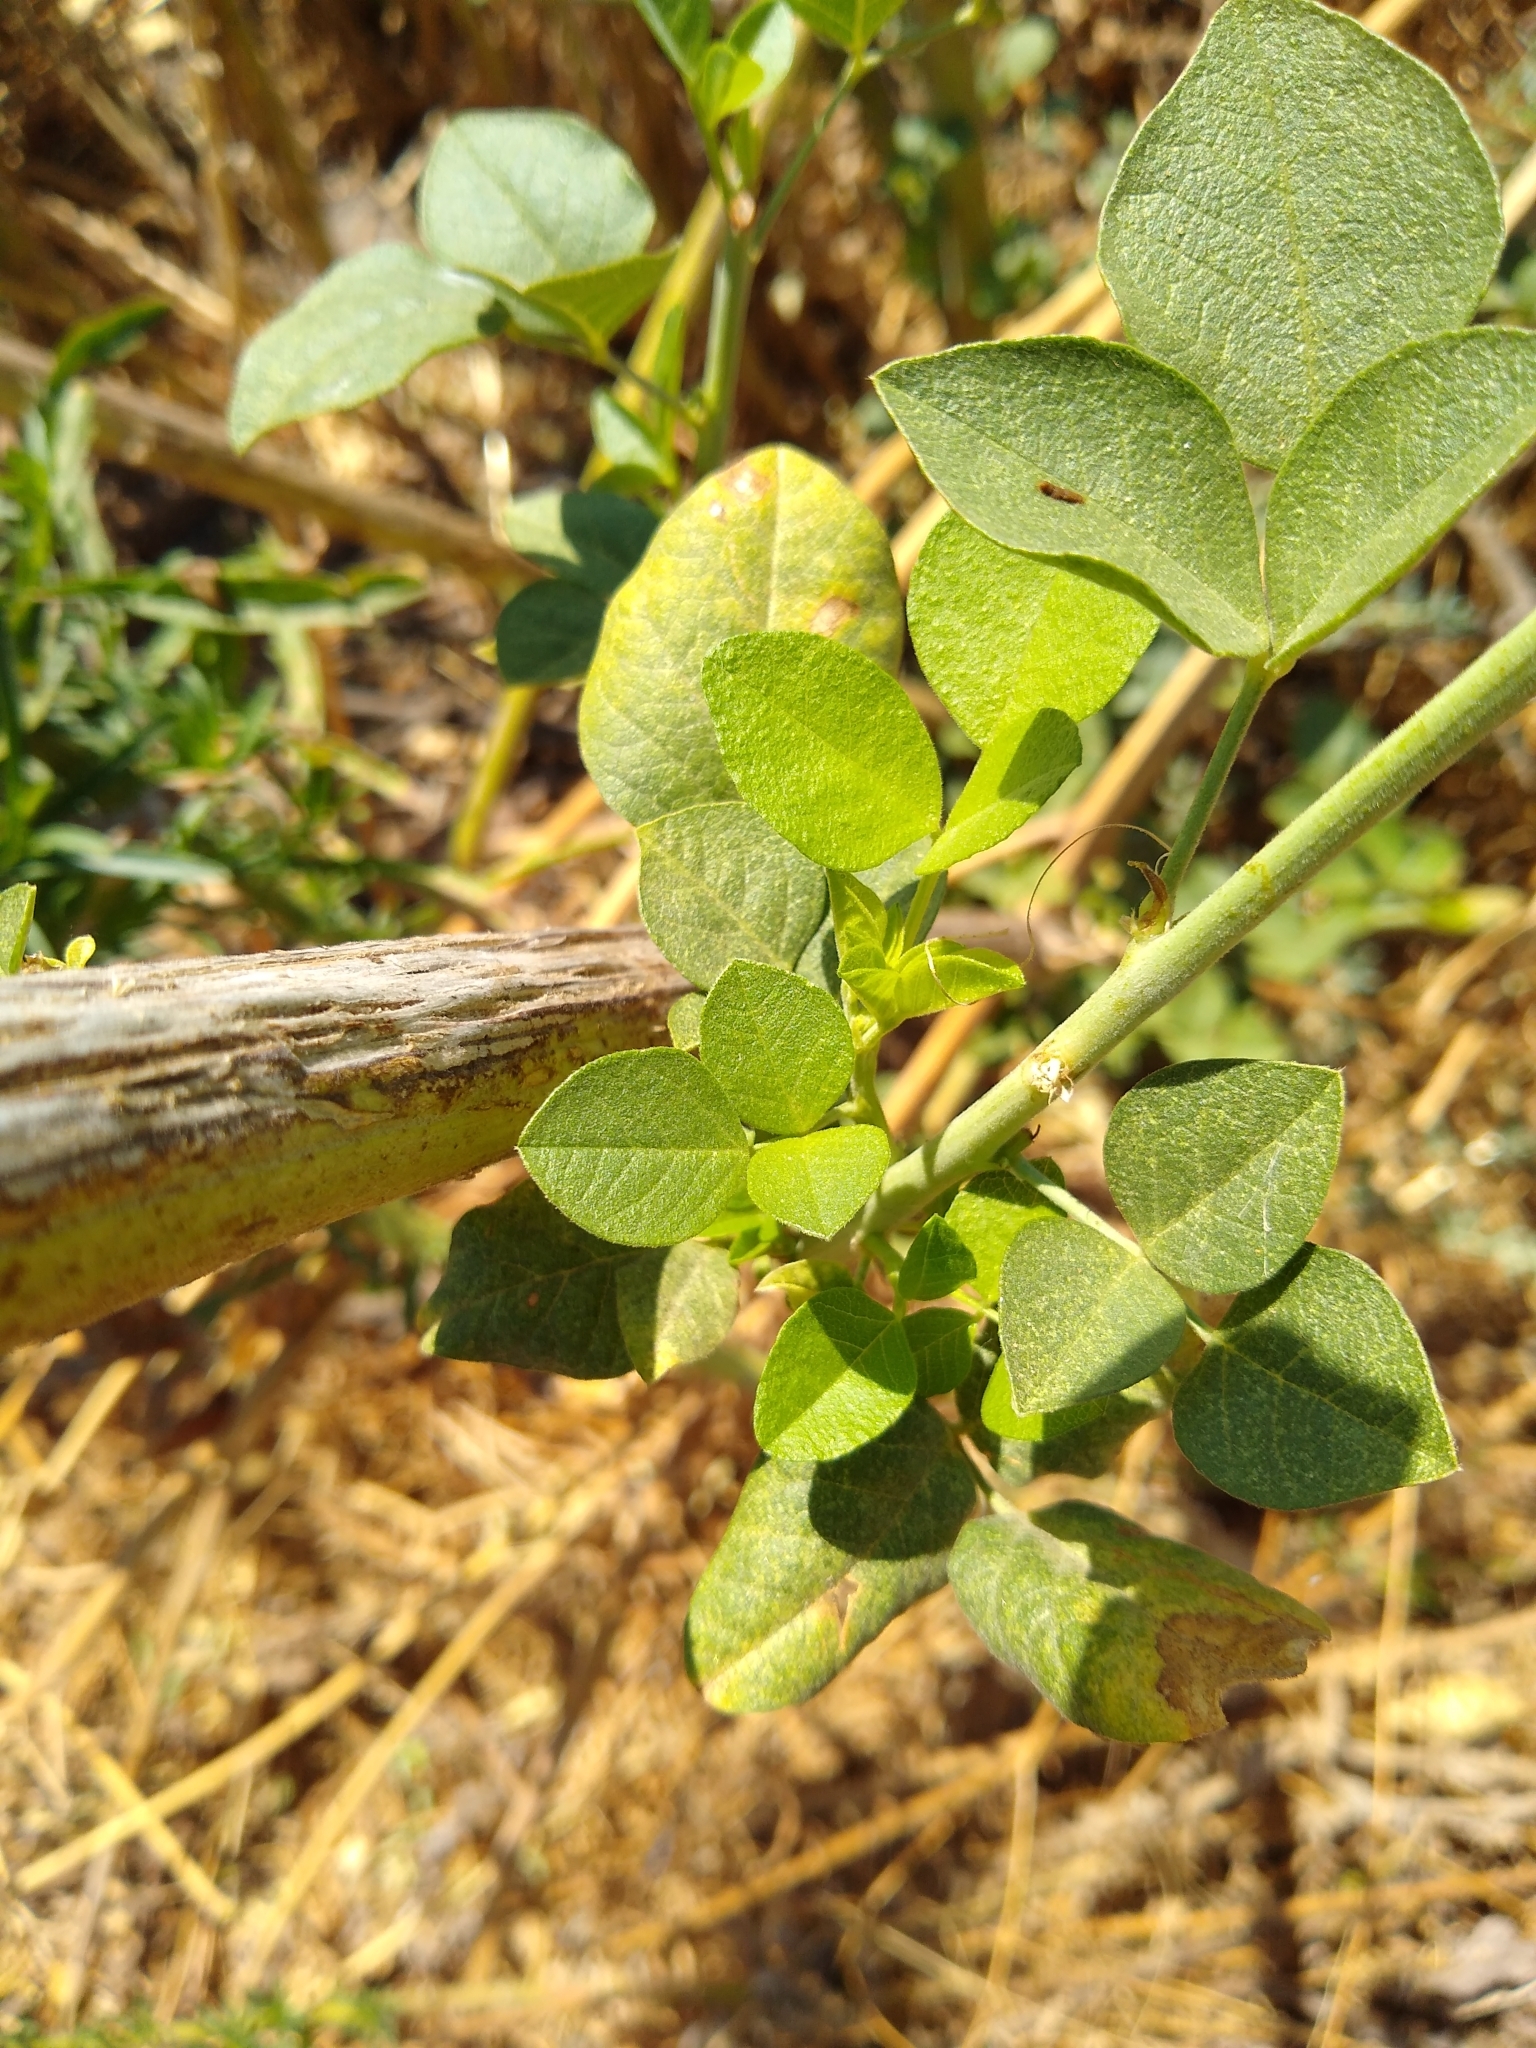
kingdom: Plantae
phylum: Tracheophyta
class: Magnoliopsida
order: Fabales
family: Fabaceae
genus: Hoita
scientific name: Hoita macrostachya
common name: Leatherroot
